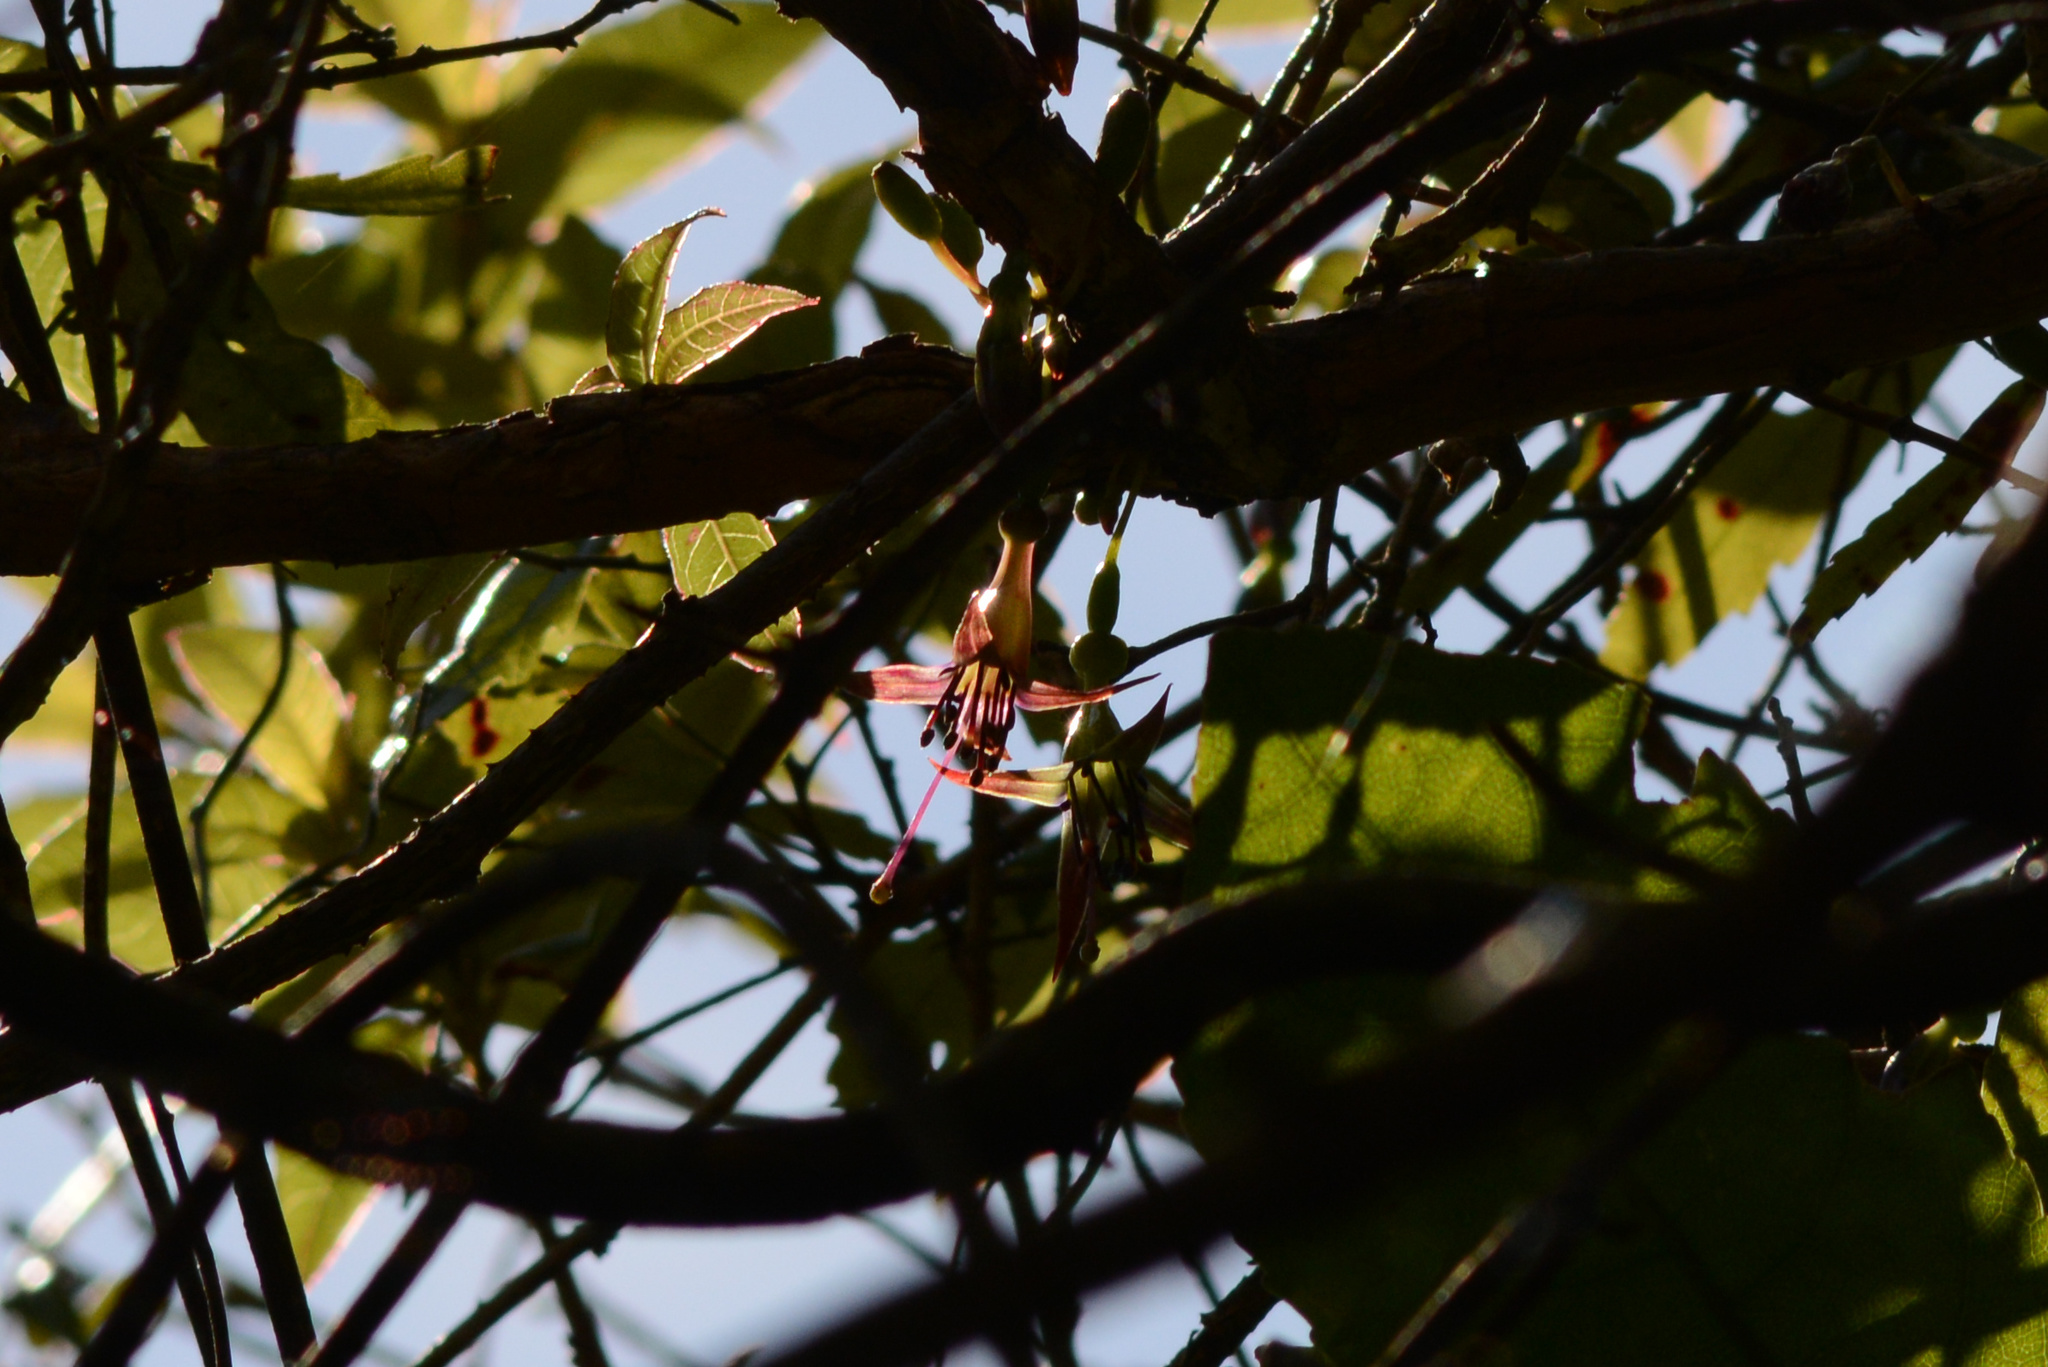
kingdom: Plantae
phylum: Tracheophyta
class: Magnoliopsida
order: Myrtales
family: Onagraceae
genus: Fuchsia
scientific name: Fuchsia excorticata
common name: Tree fuchsia
